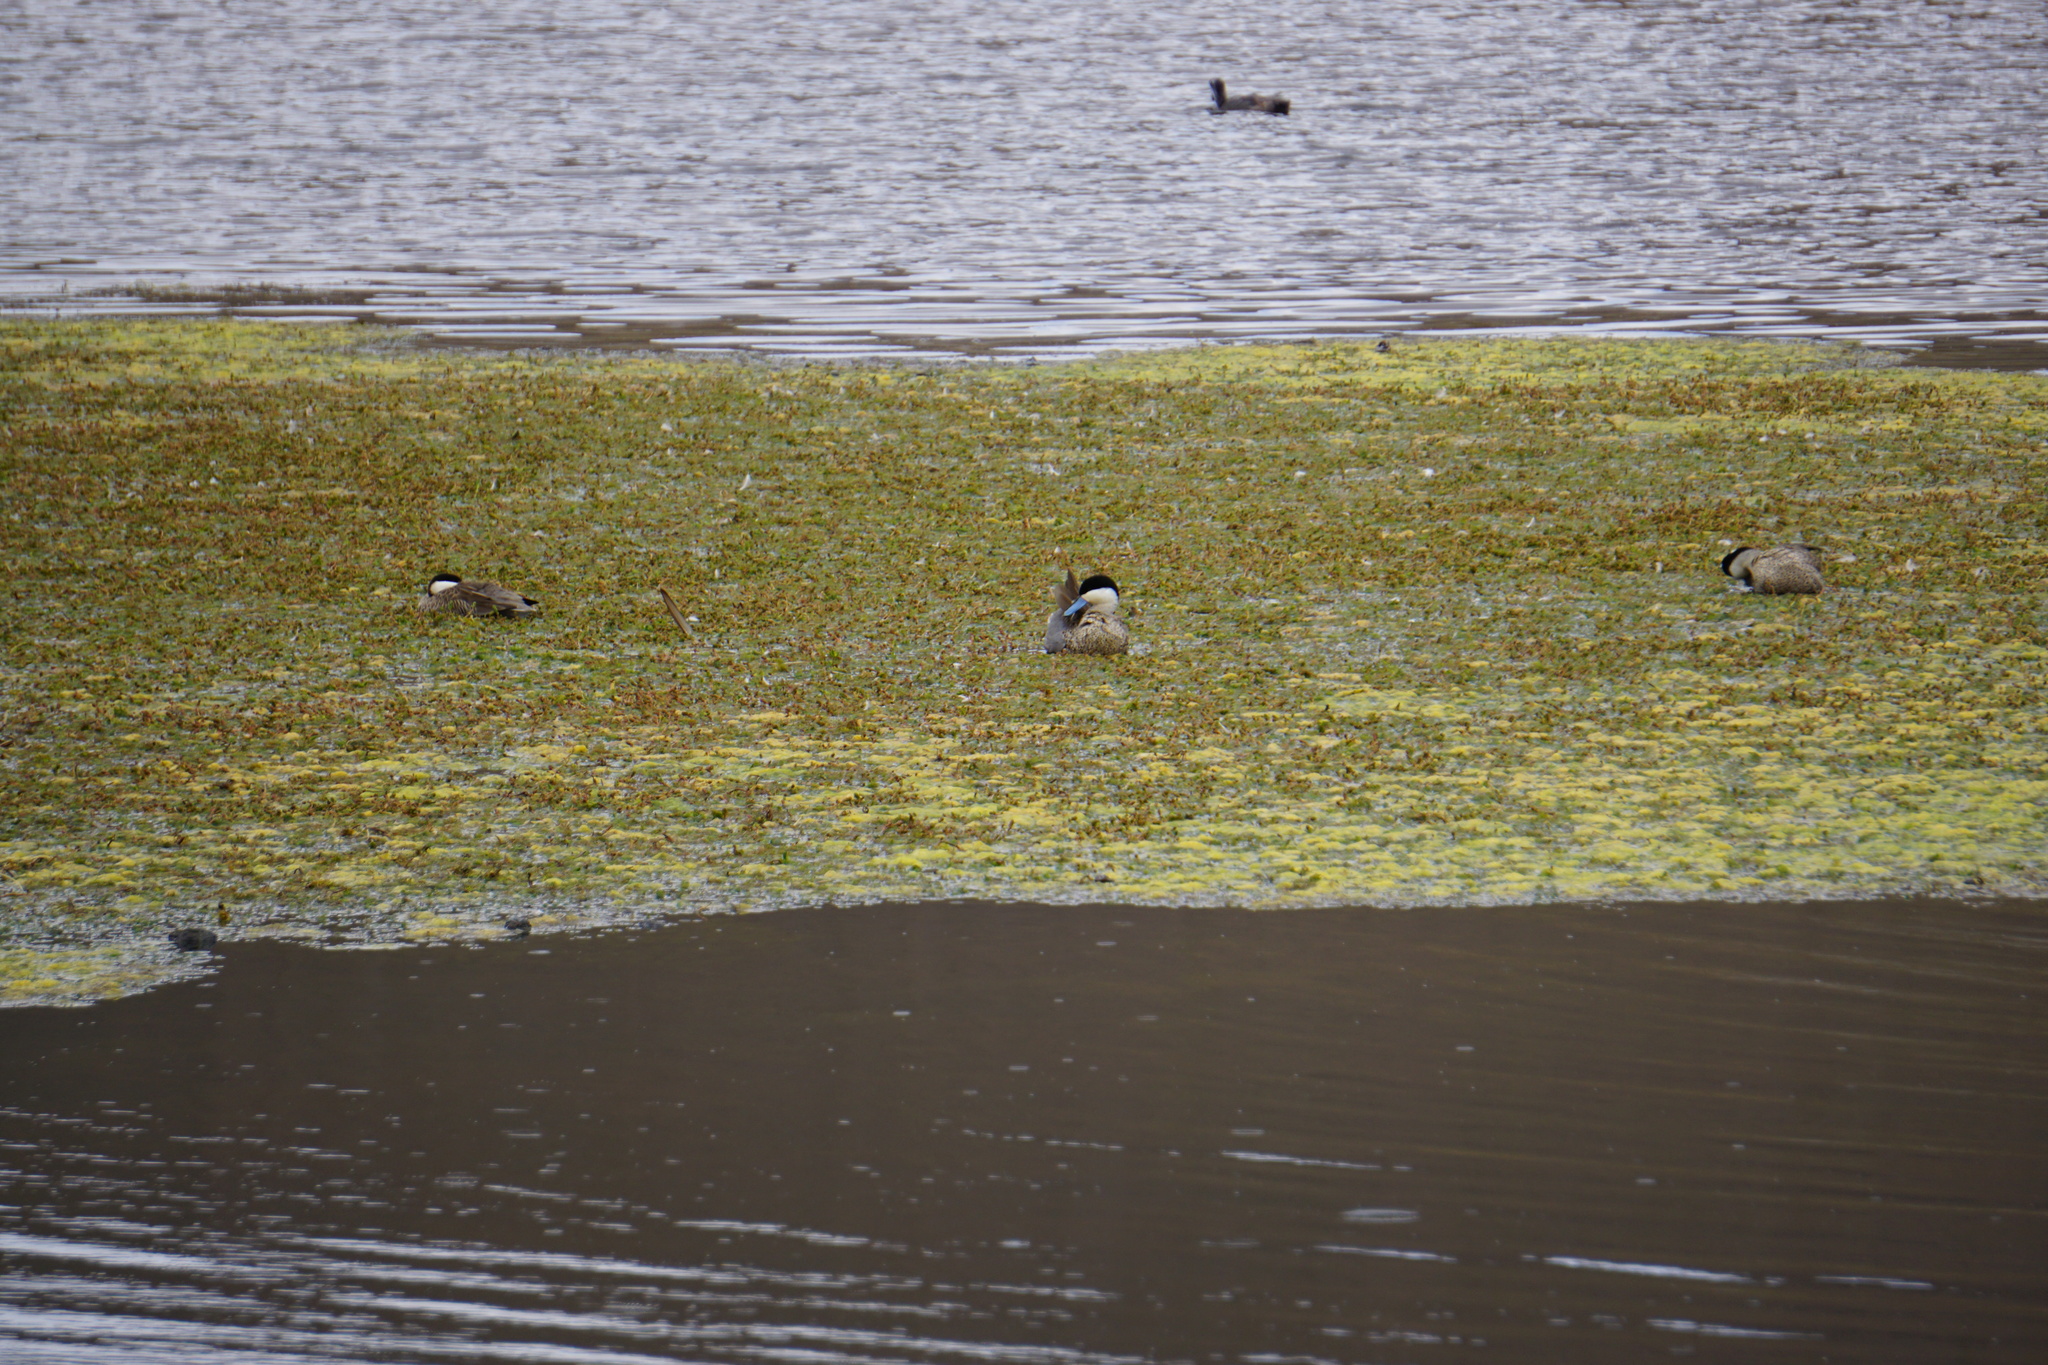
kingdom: Animalia
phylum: Chordata
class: Aves
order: Anseriformes
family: Anatidae
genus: Spatula
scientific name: Spatula puna
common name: Puna teal
